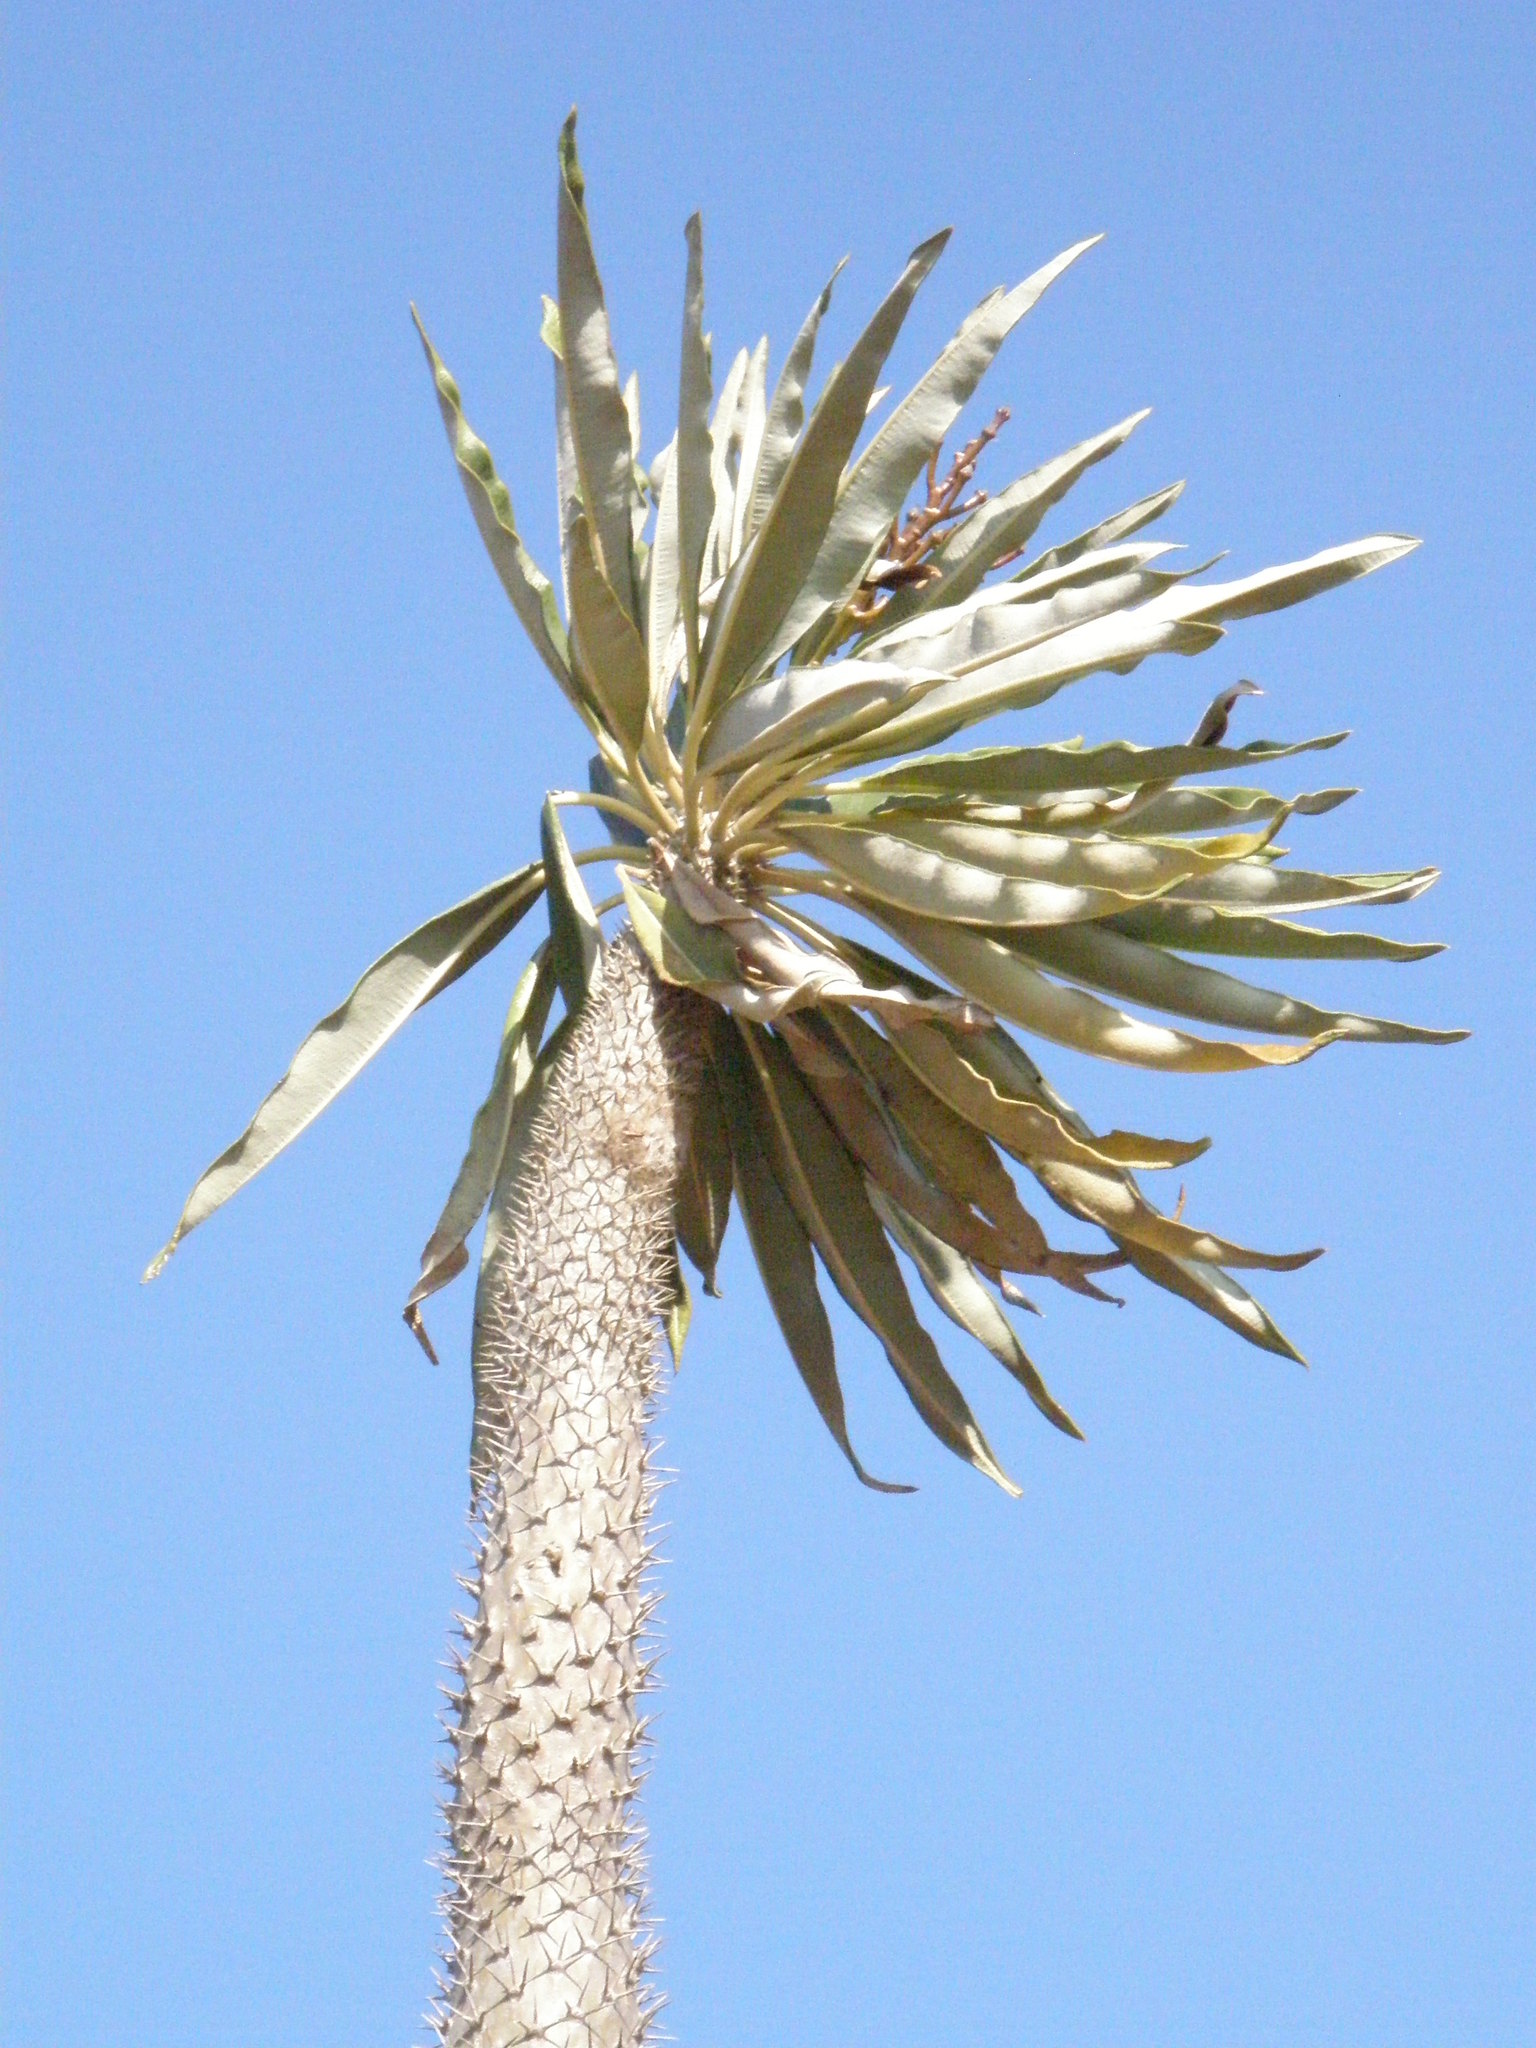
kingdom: Plantae
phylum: Tracheophyta
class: Magnoliopsida
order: Gentianales
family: Apocynaceae
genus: Pachypodium
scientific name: Pachypodium lamerei
